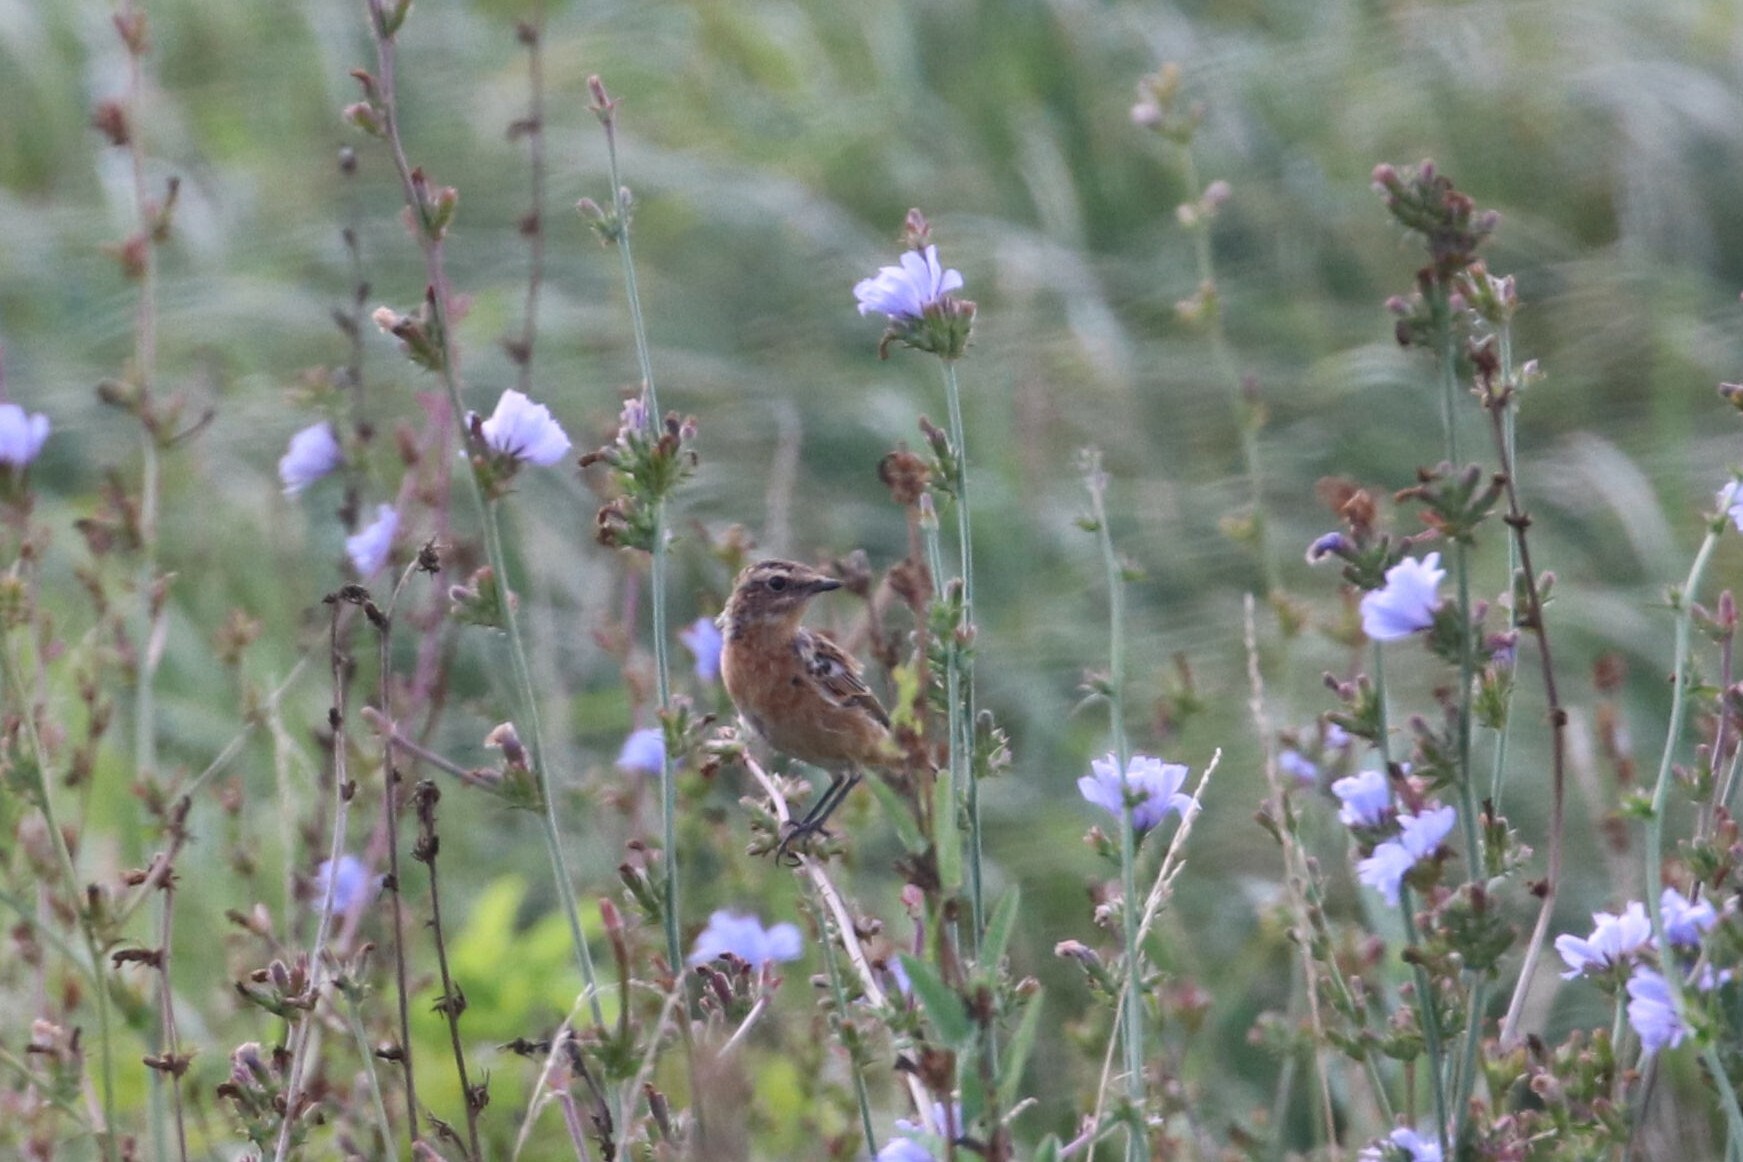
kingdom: Animalia
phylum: Chordata
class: Aves
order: Passeriformes
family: Muscicapidae
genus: Saxicola
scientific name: Saxicola rubetra
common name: Whinchat
